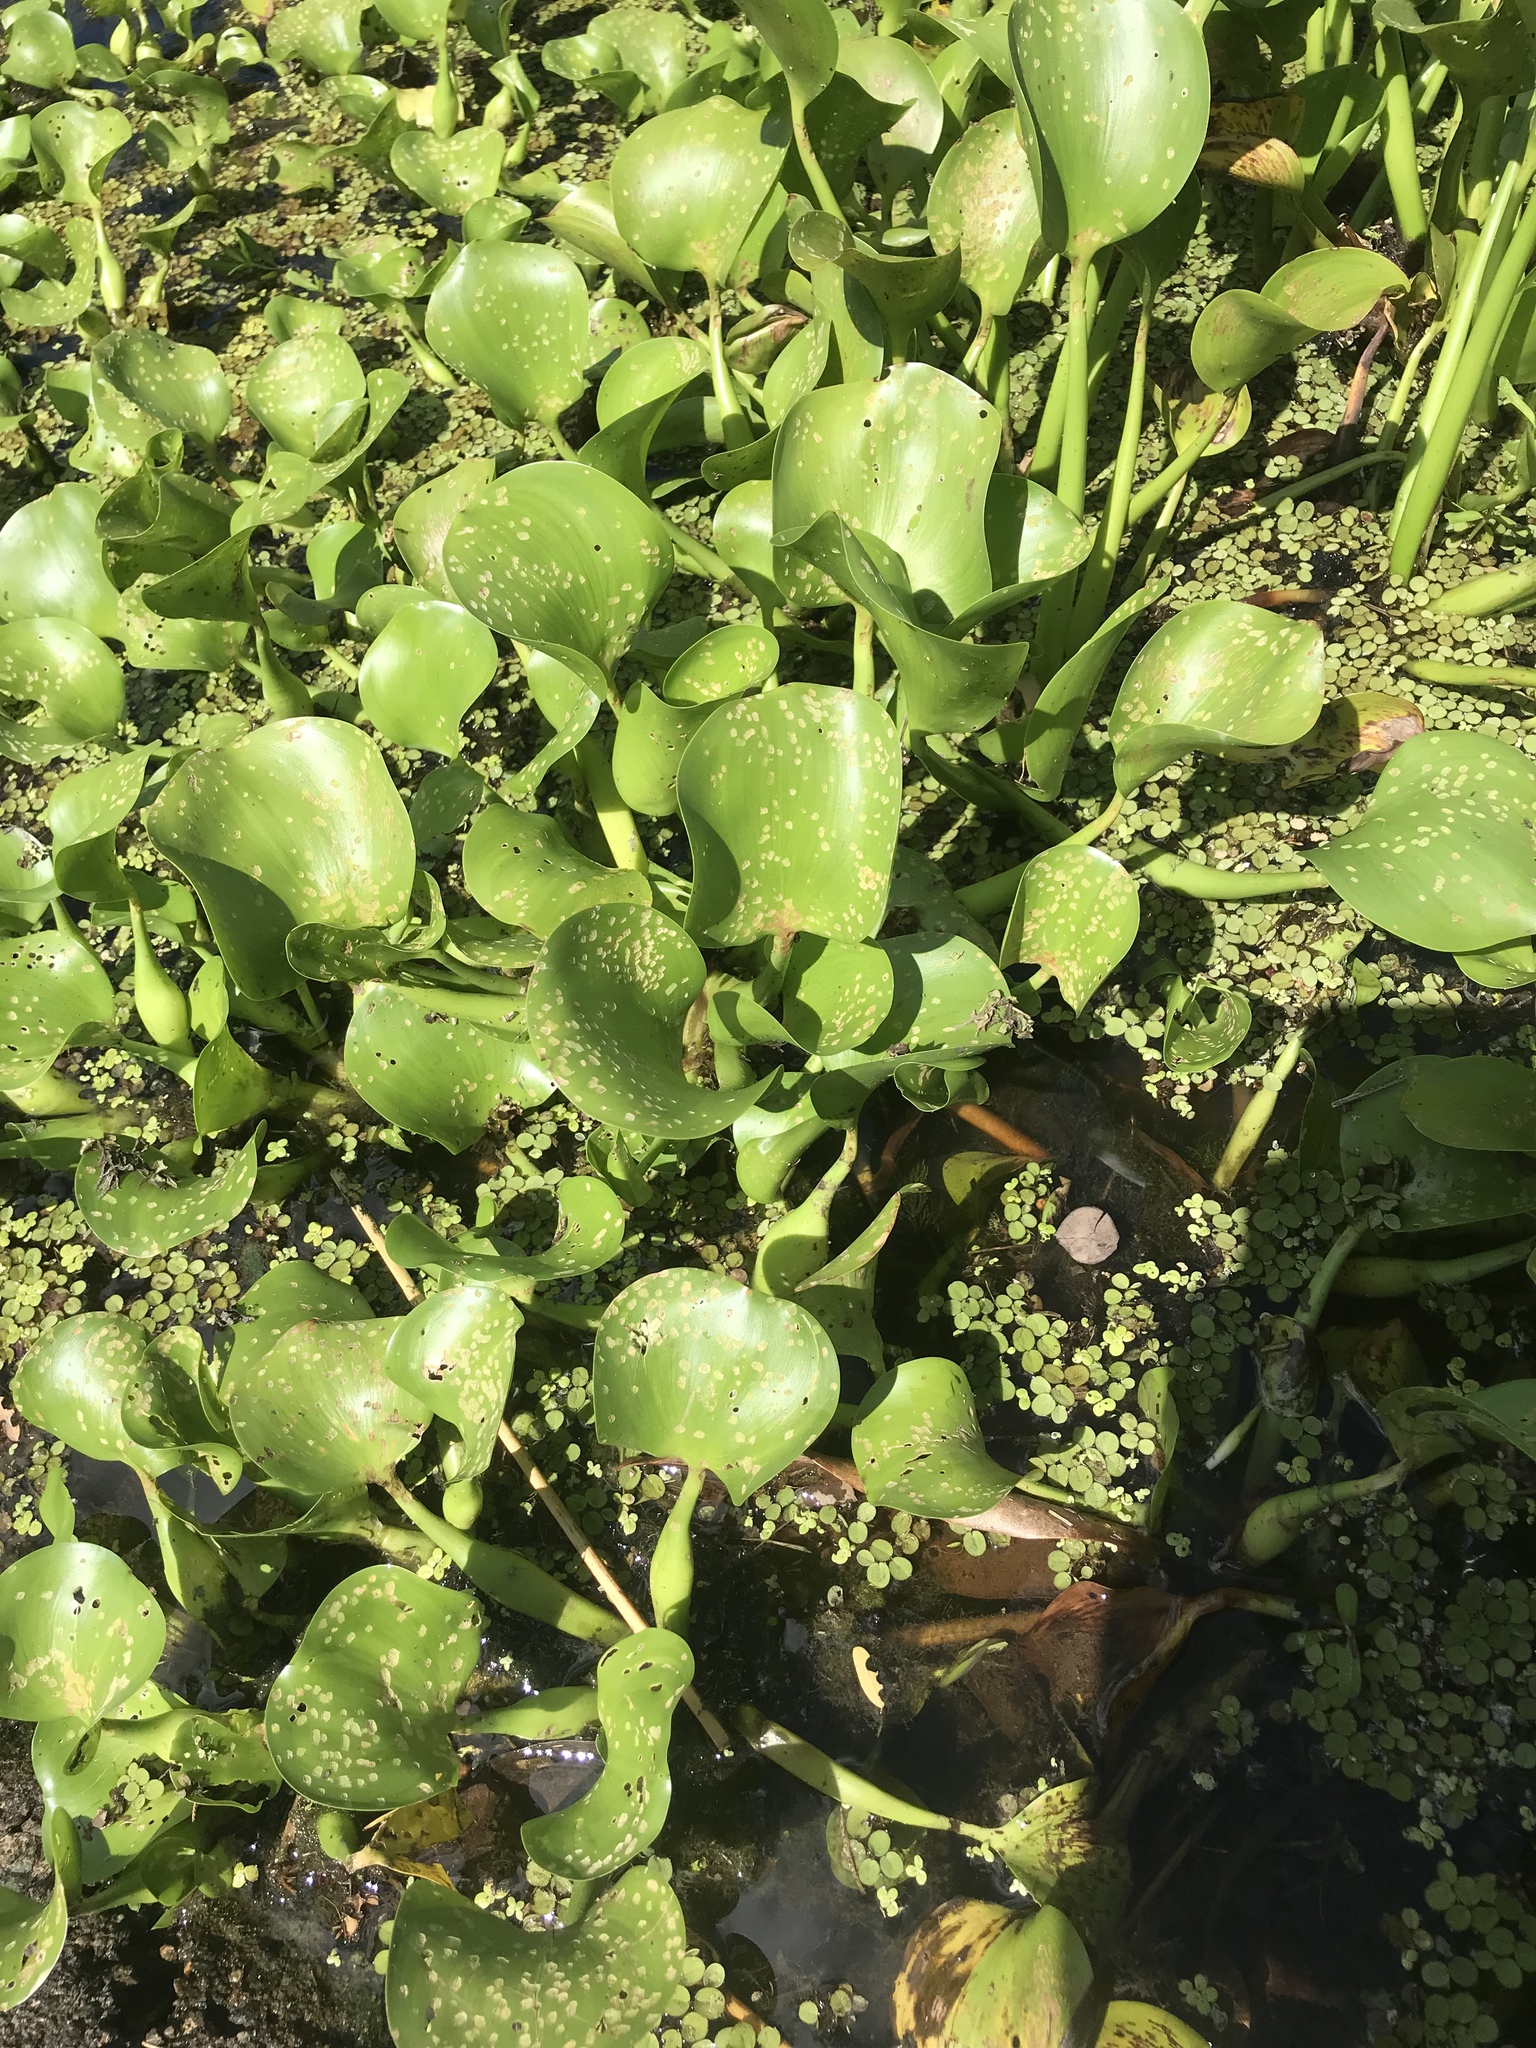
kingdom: Plantae
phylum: Tracheophyta
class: Liliopsida
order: Commelinales
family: Pontederiaceae
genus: Pontederia
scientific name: Pontederia crassipes
